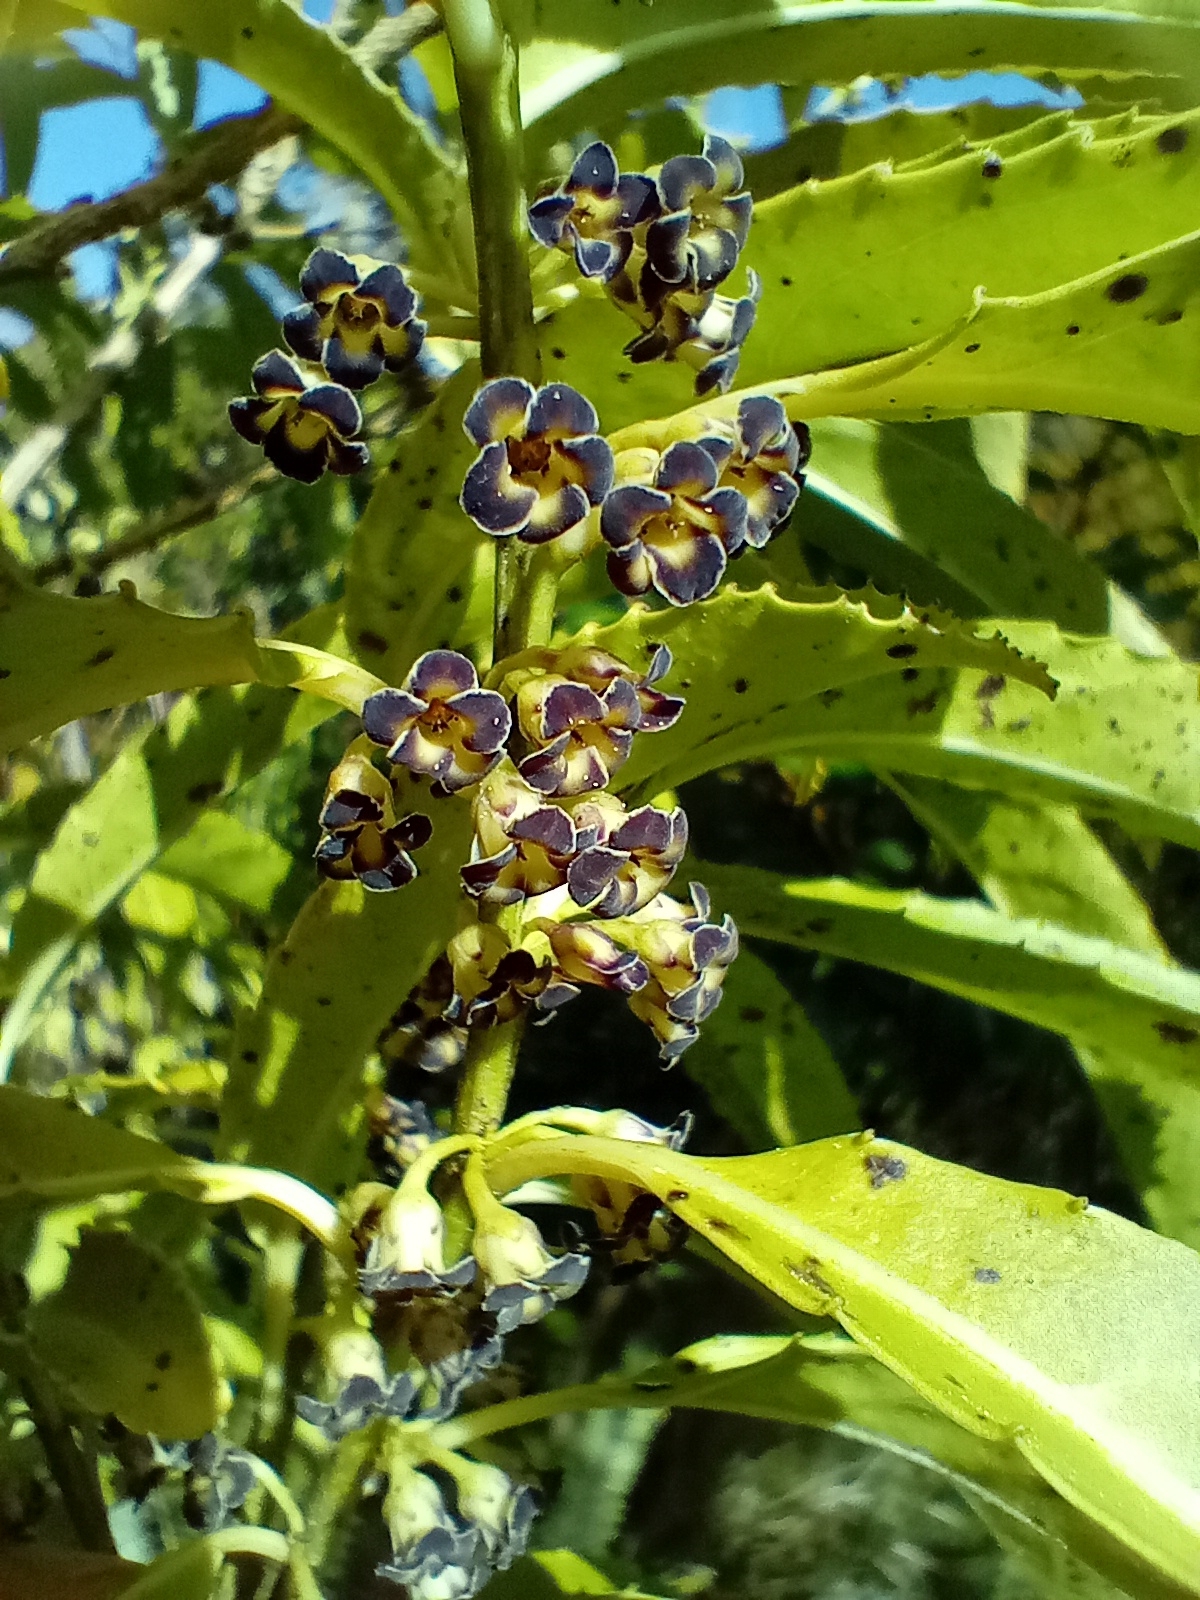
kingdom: Plantae
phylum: Tracheophyta
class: Magnoliopsida
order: Malpighiales
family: Violaceae
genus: Melicytus
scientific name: Melicytus lanceolatus
